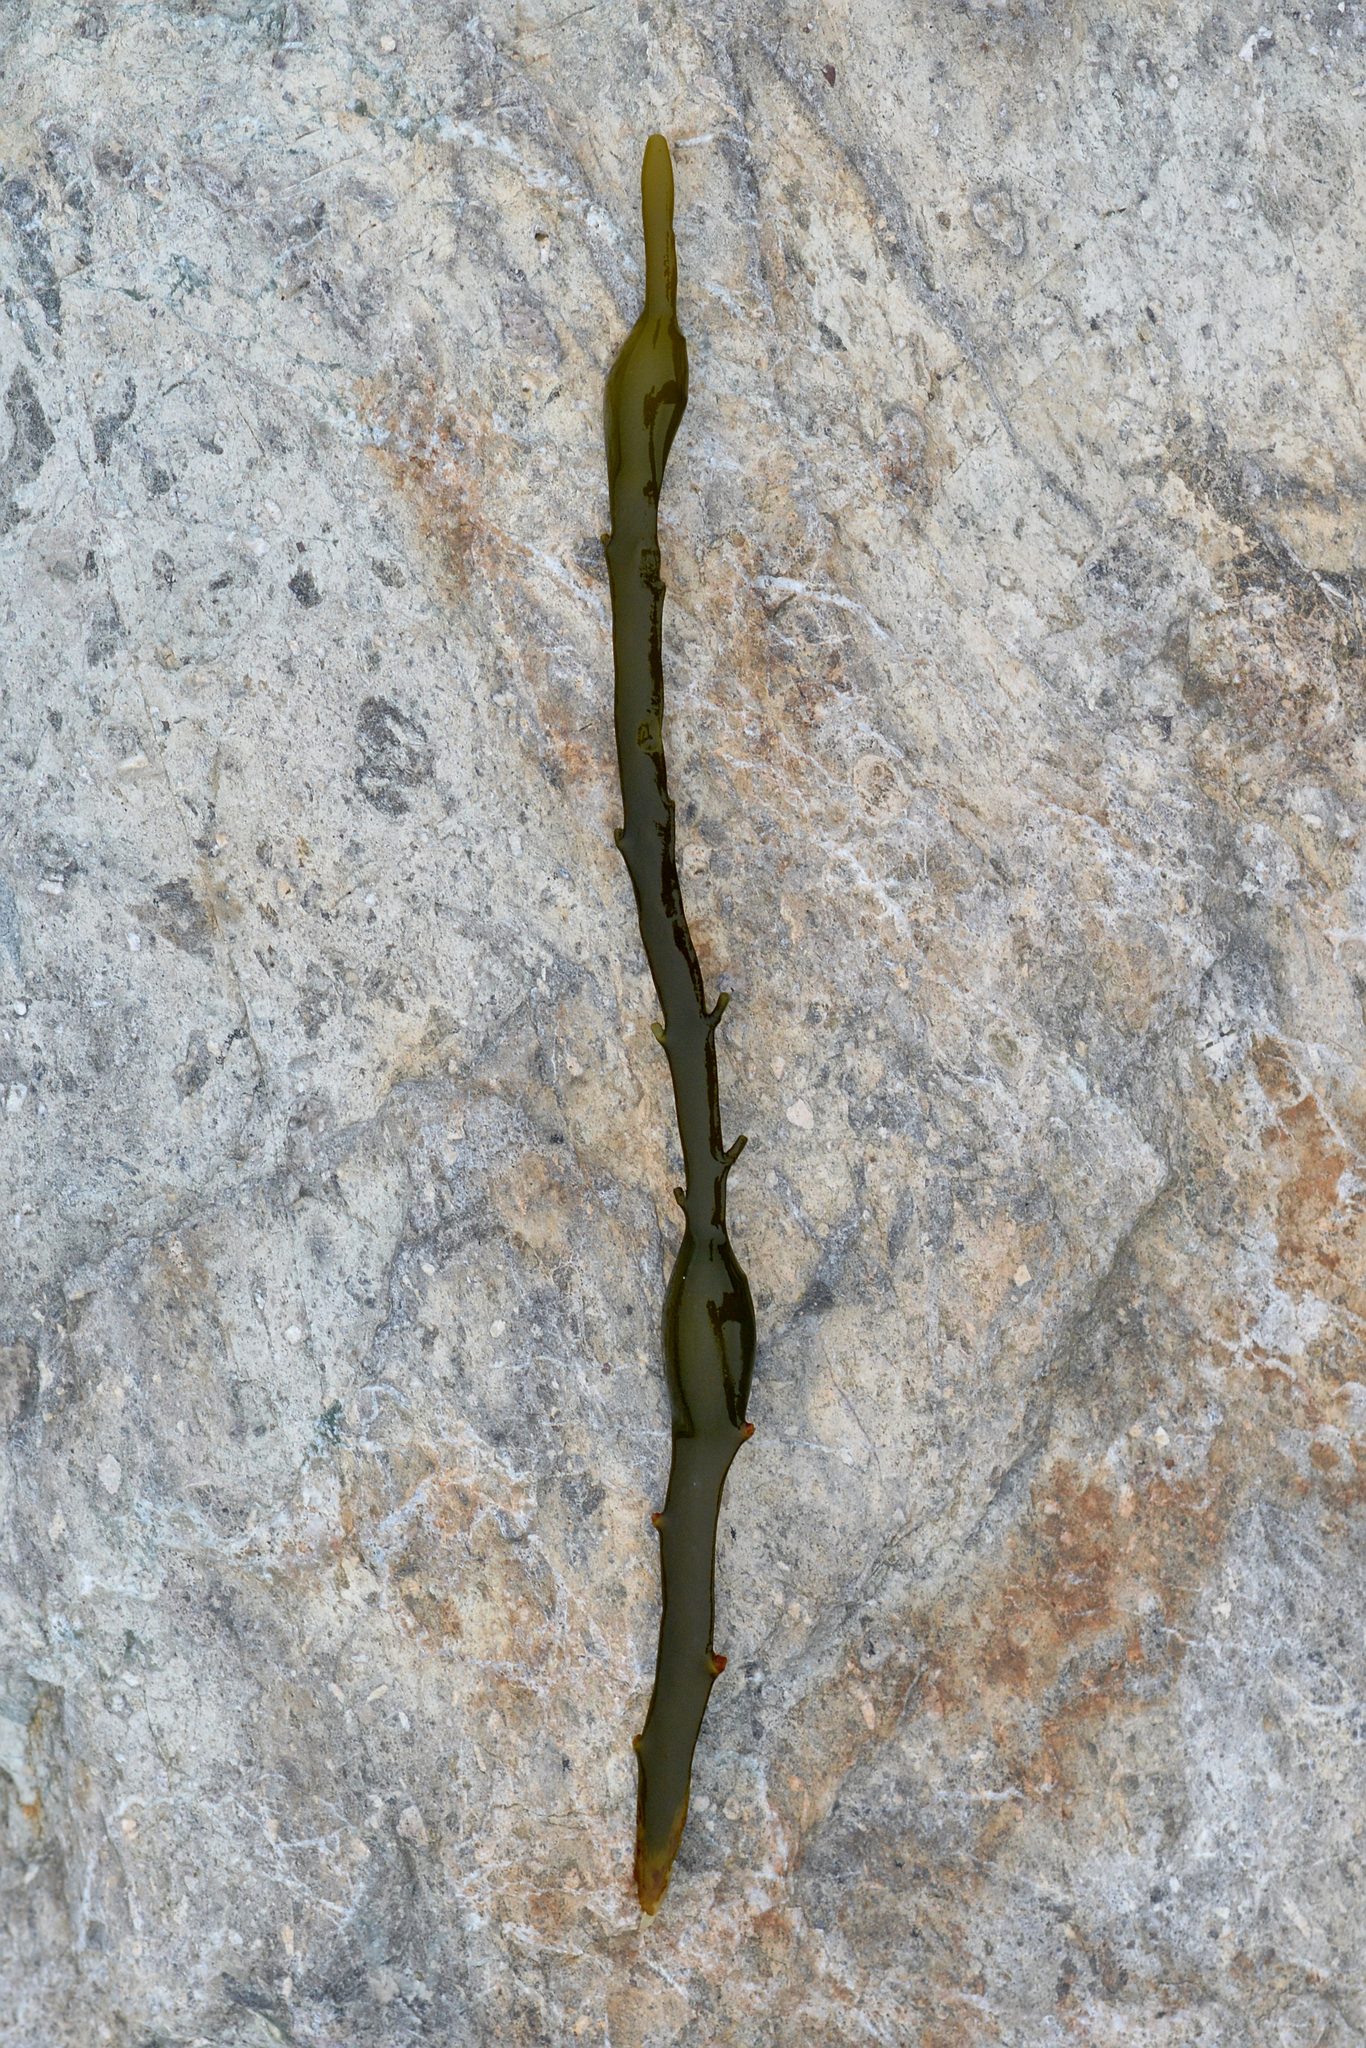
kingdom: Chromista
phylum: Ochrophyta
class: Phaeophyceae
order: Fucales
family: Fucaceae
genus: Ascophyllum
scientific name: Ascophyllum nodosum
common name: Knotted wrack
